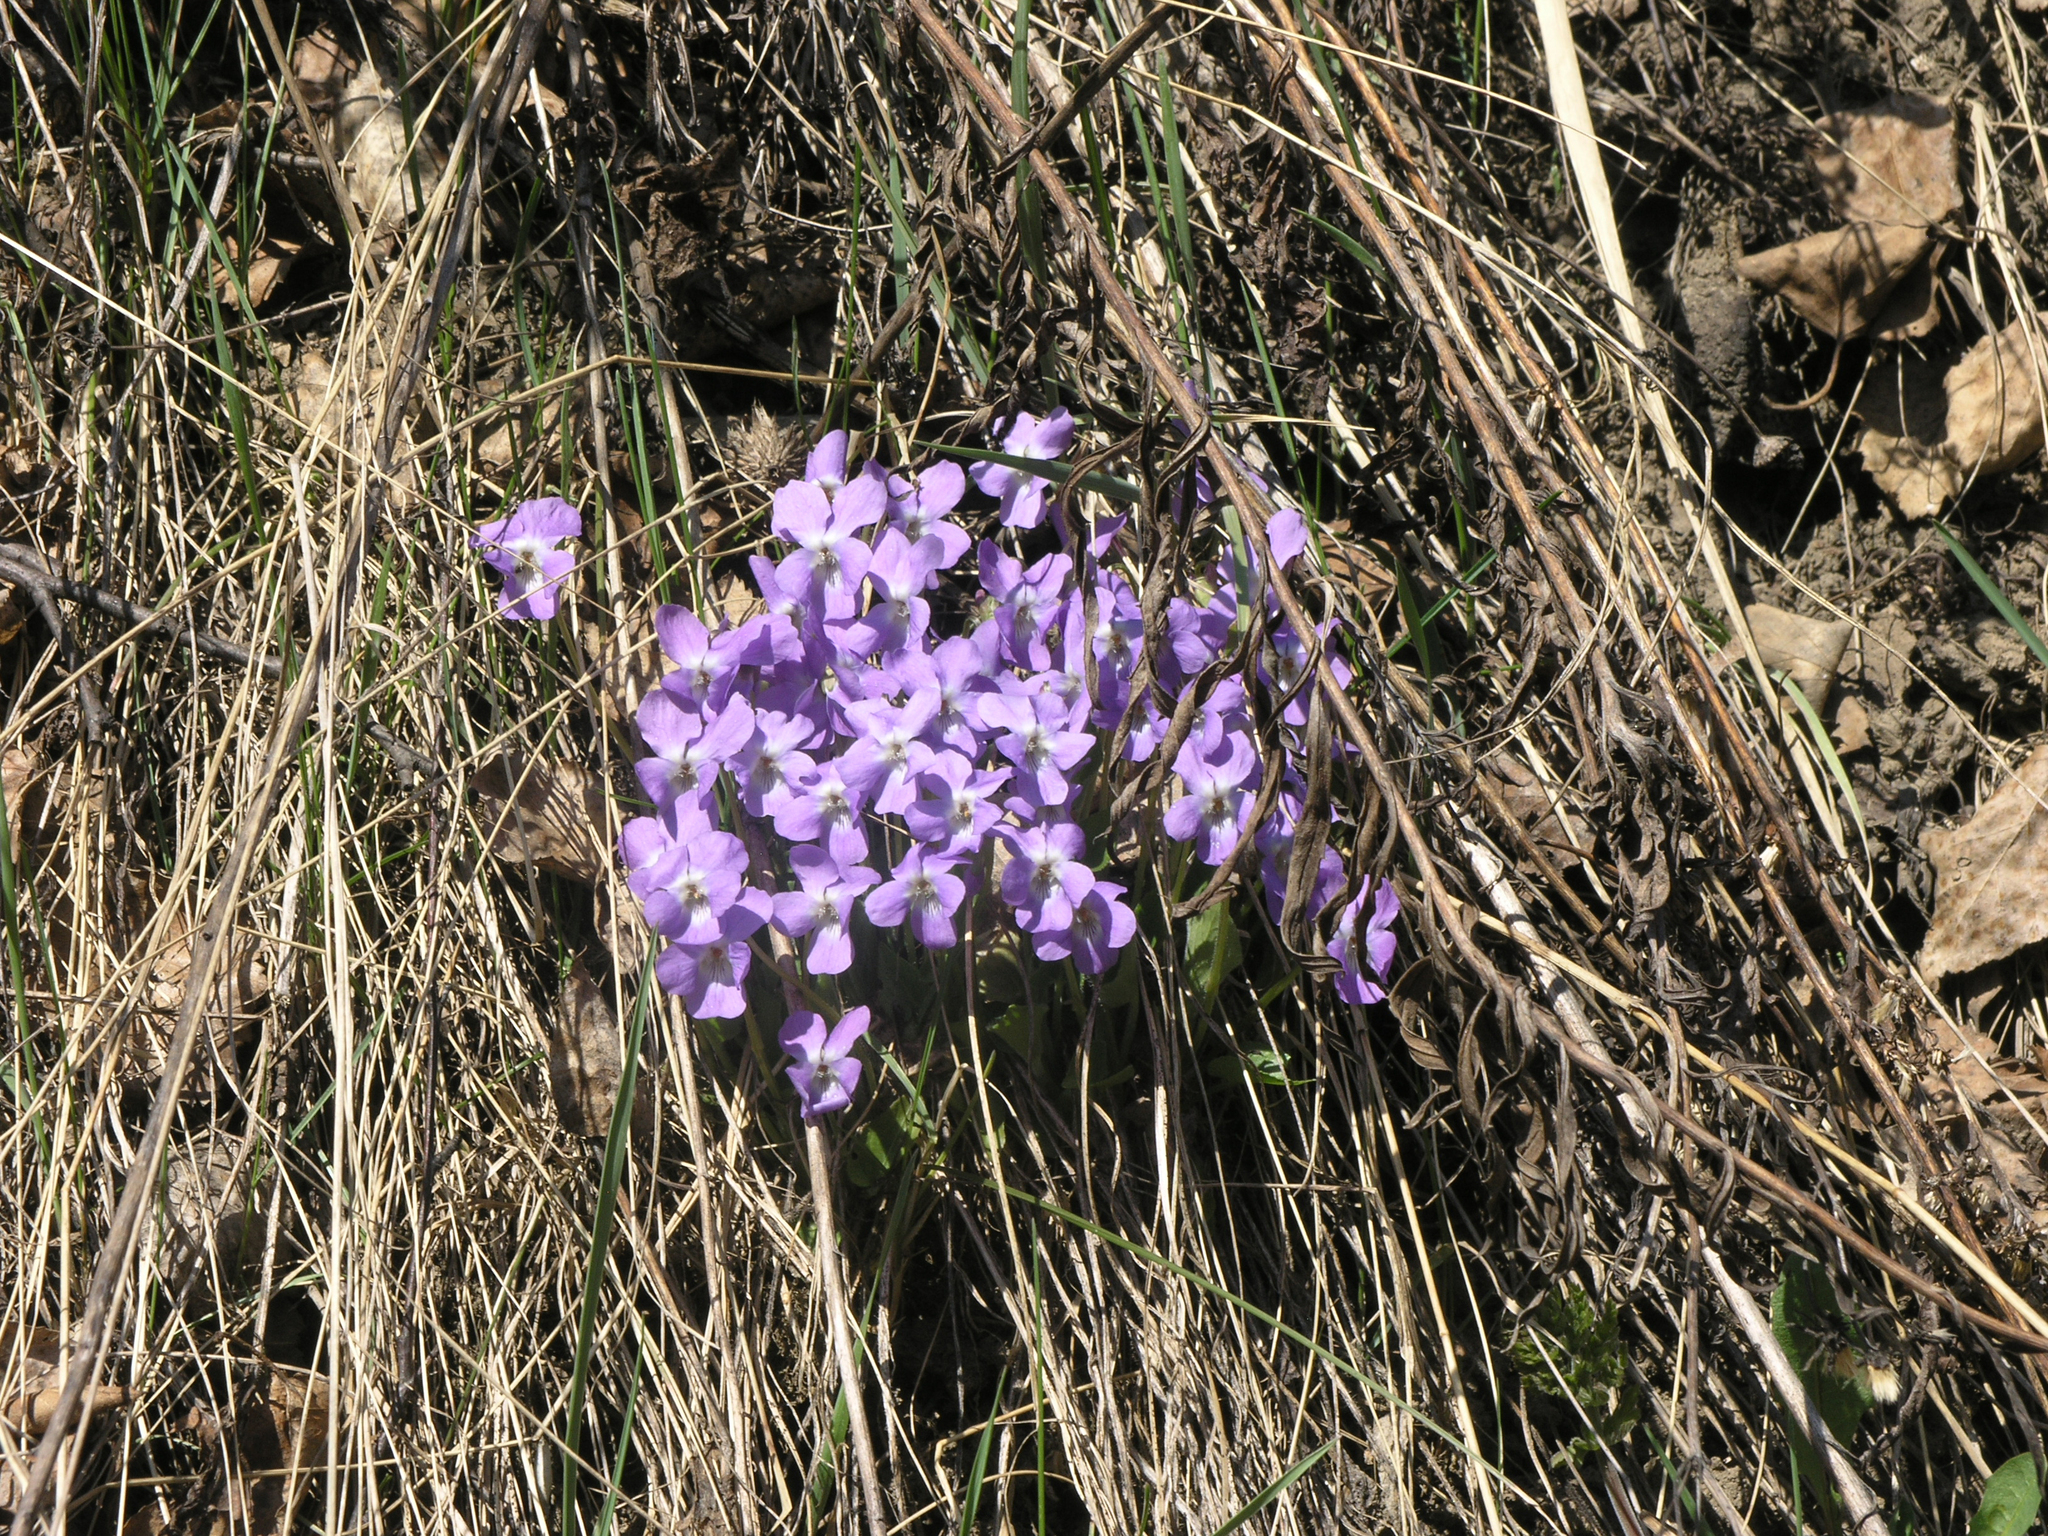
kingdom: Plantae
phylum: Tracheophyta
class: Magnoliopsida
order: Malpighiales
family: Violaceae
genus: Viola
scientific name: Viola hirta
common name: Hairy violet
